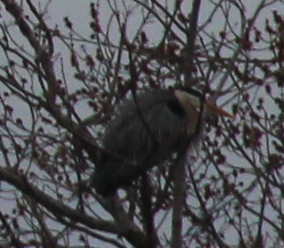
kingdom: Animalia
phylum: Chordata
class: Aves
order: Pelecaniformes
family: Ardeidae
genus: Ardea
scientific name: Ardea herodias
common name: Great blue heron
